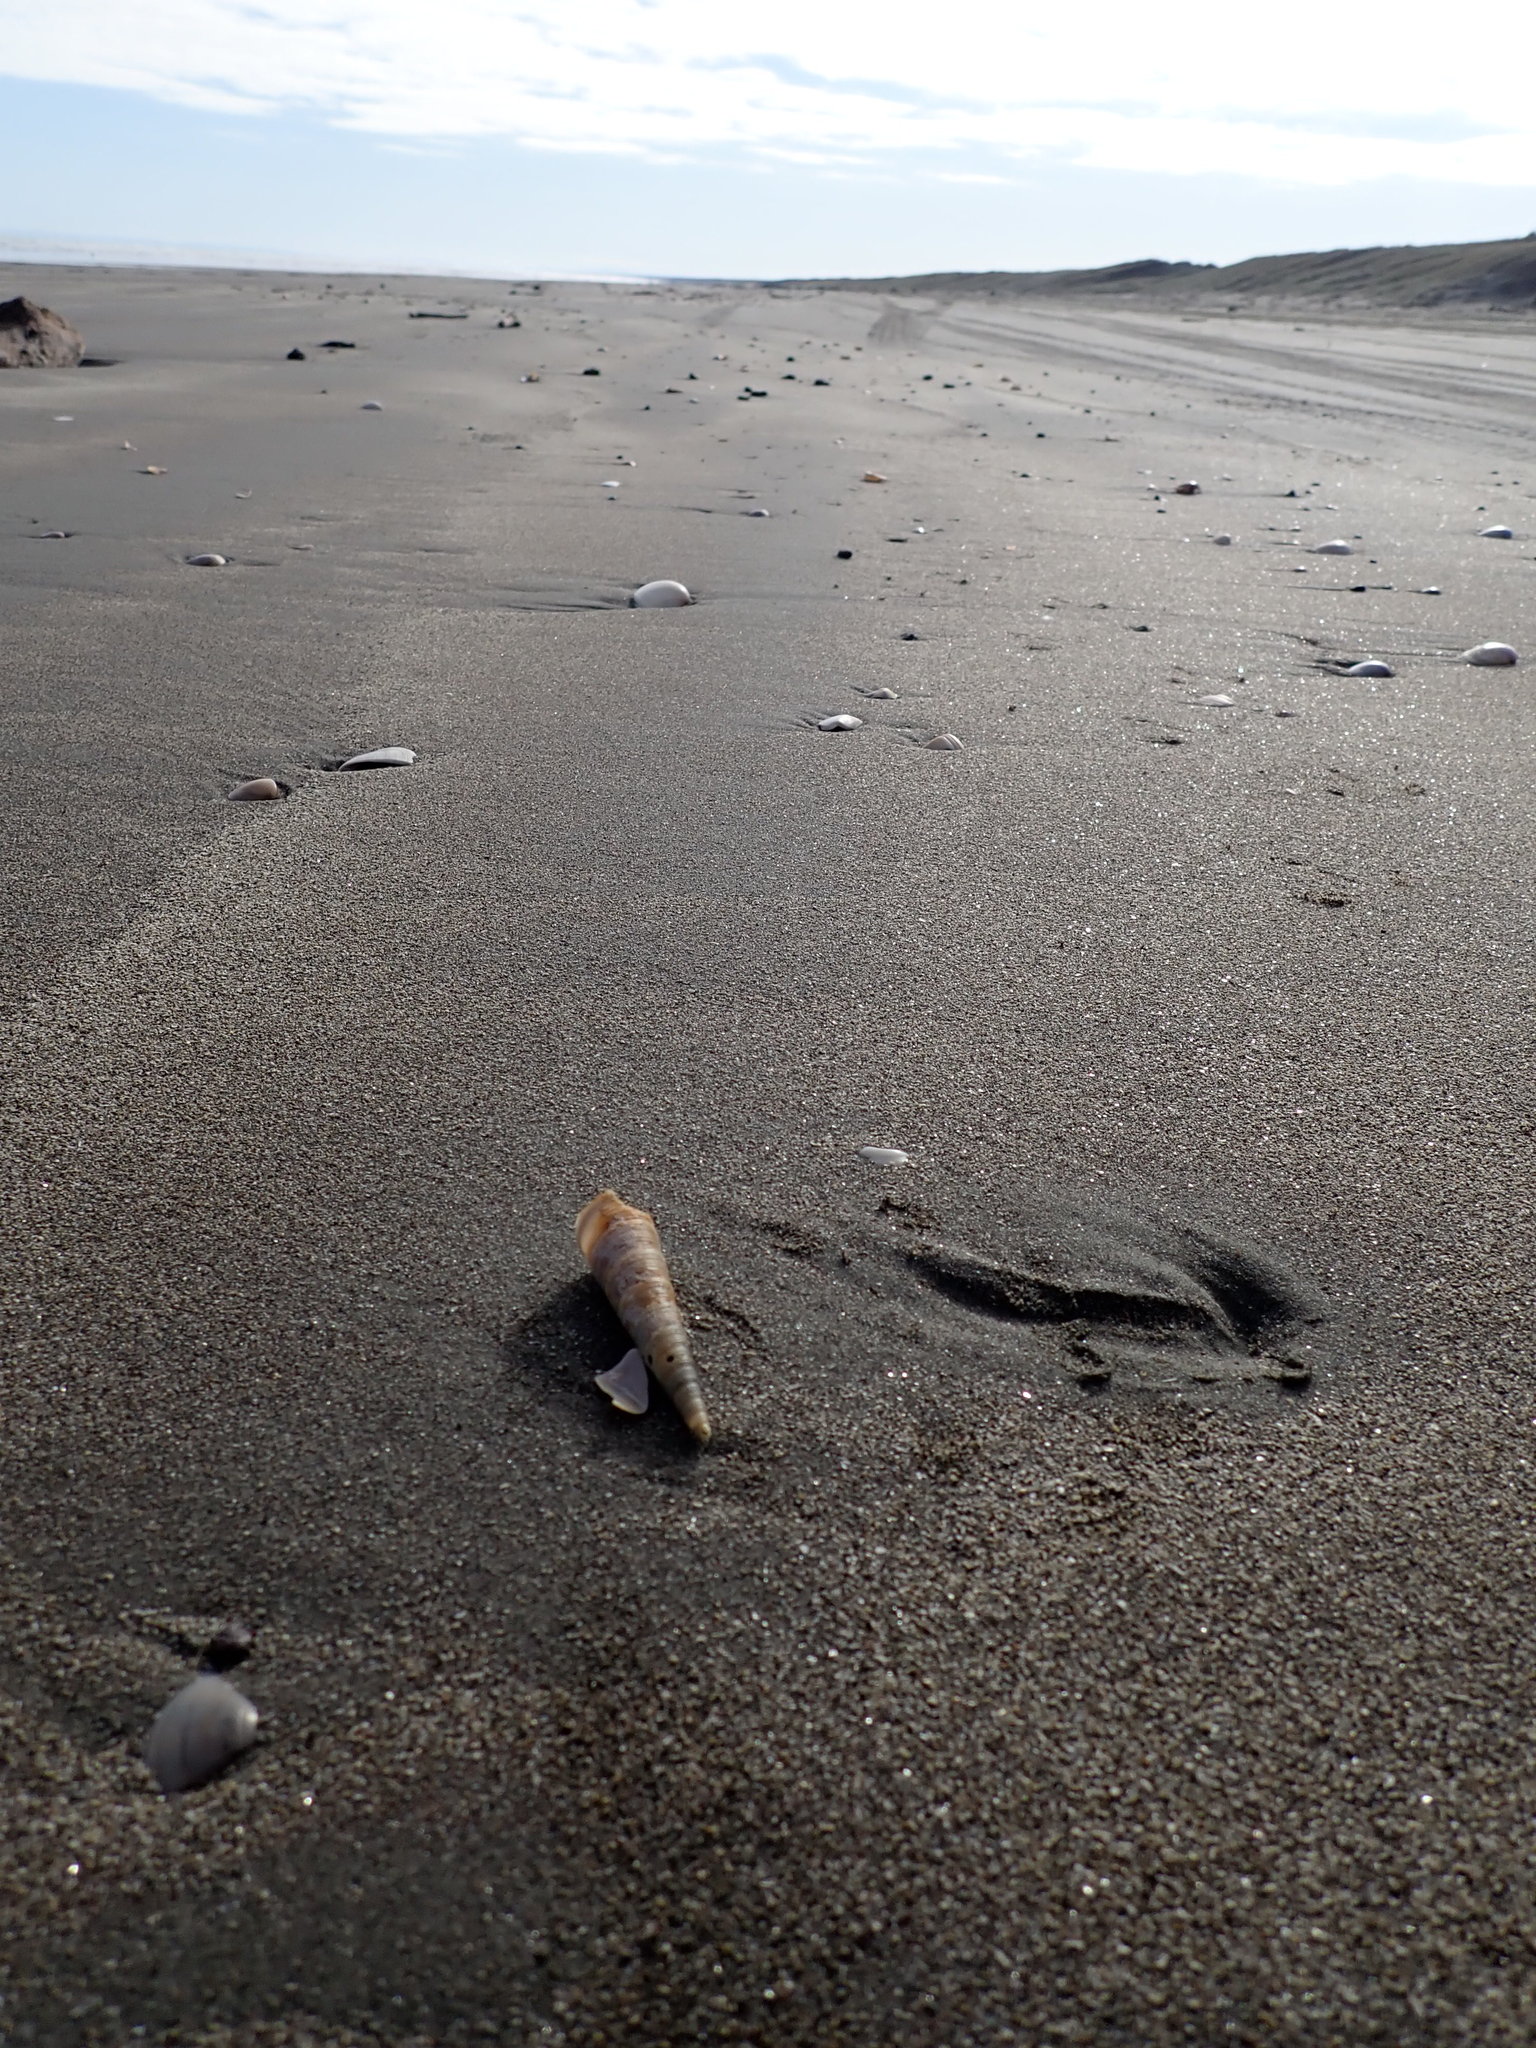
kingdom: Animalia
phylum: Mollusca
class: Gastropoda
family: Turritellidae
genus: Zeacolpus
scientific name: Zeacolpus vittatus
